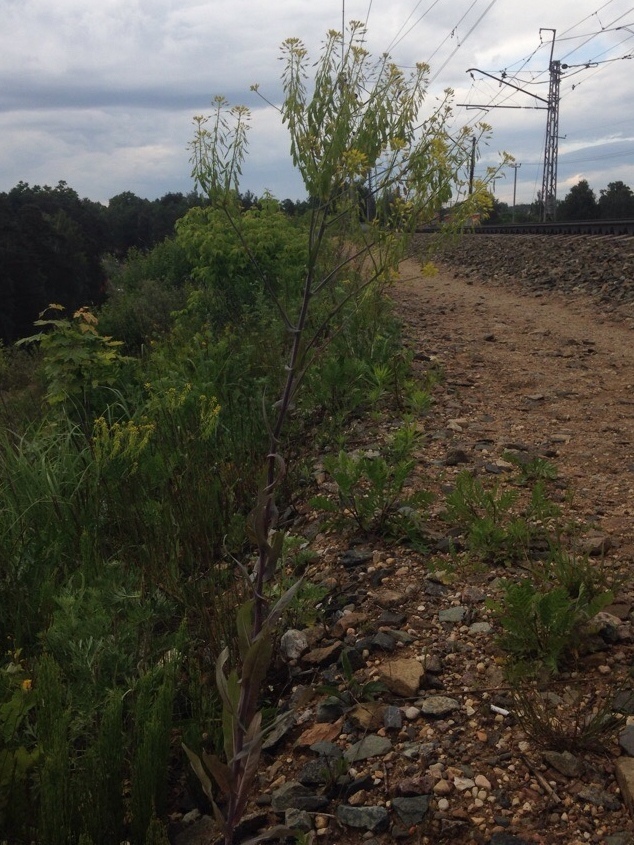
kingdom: Plantae
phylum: Tracheophyta
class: Magnoliopsida
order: Brassicales
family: Brassicaceae
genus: Isatis
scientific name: Isatis tinctoria
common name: Woad
